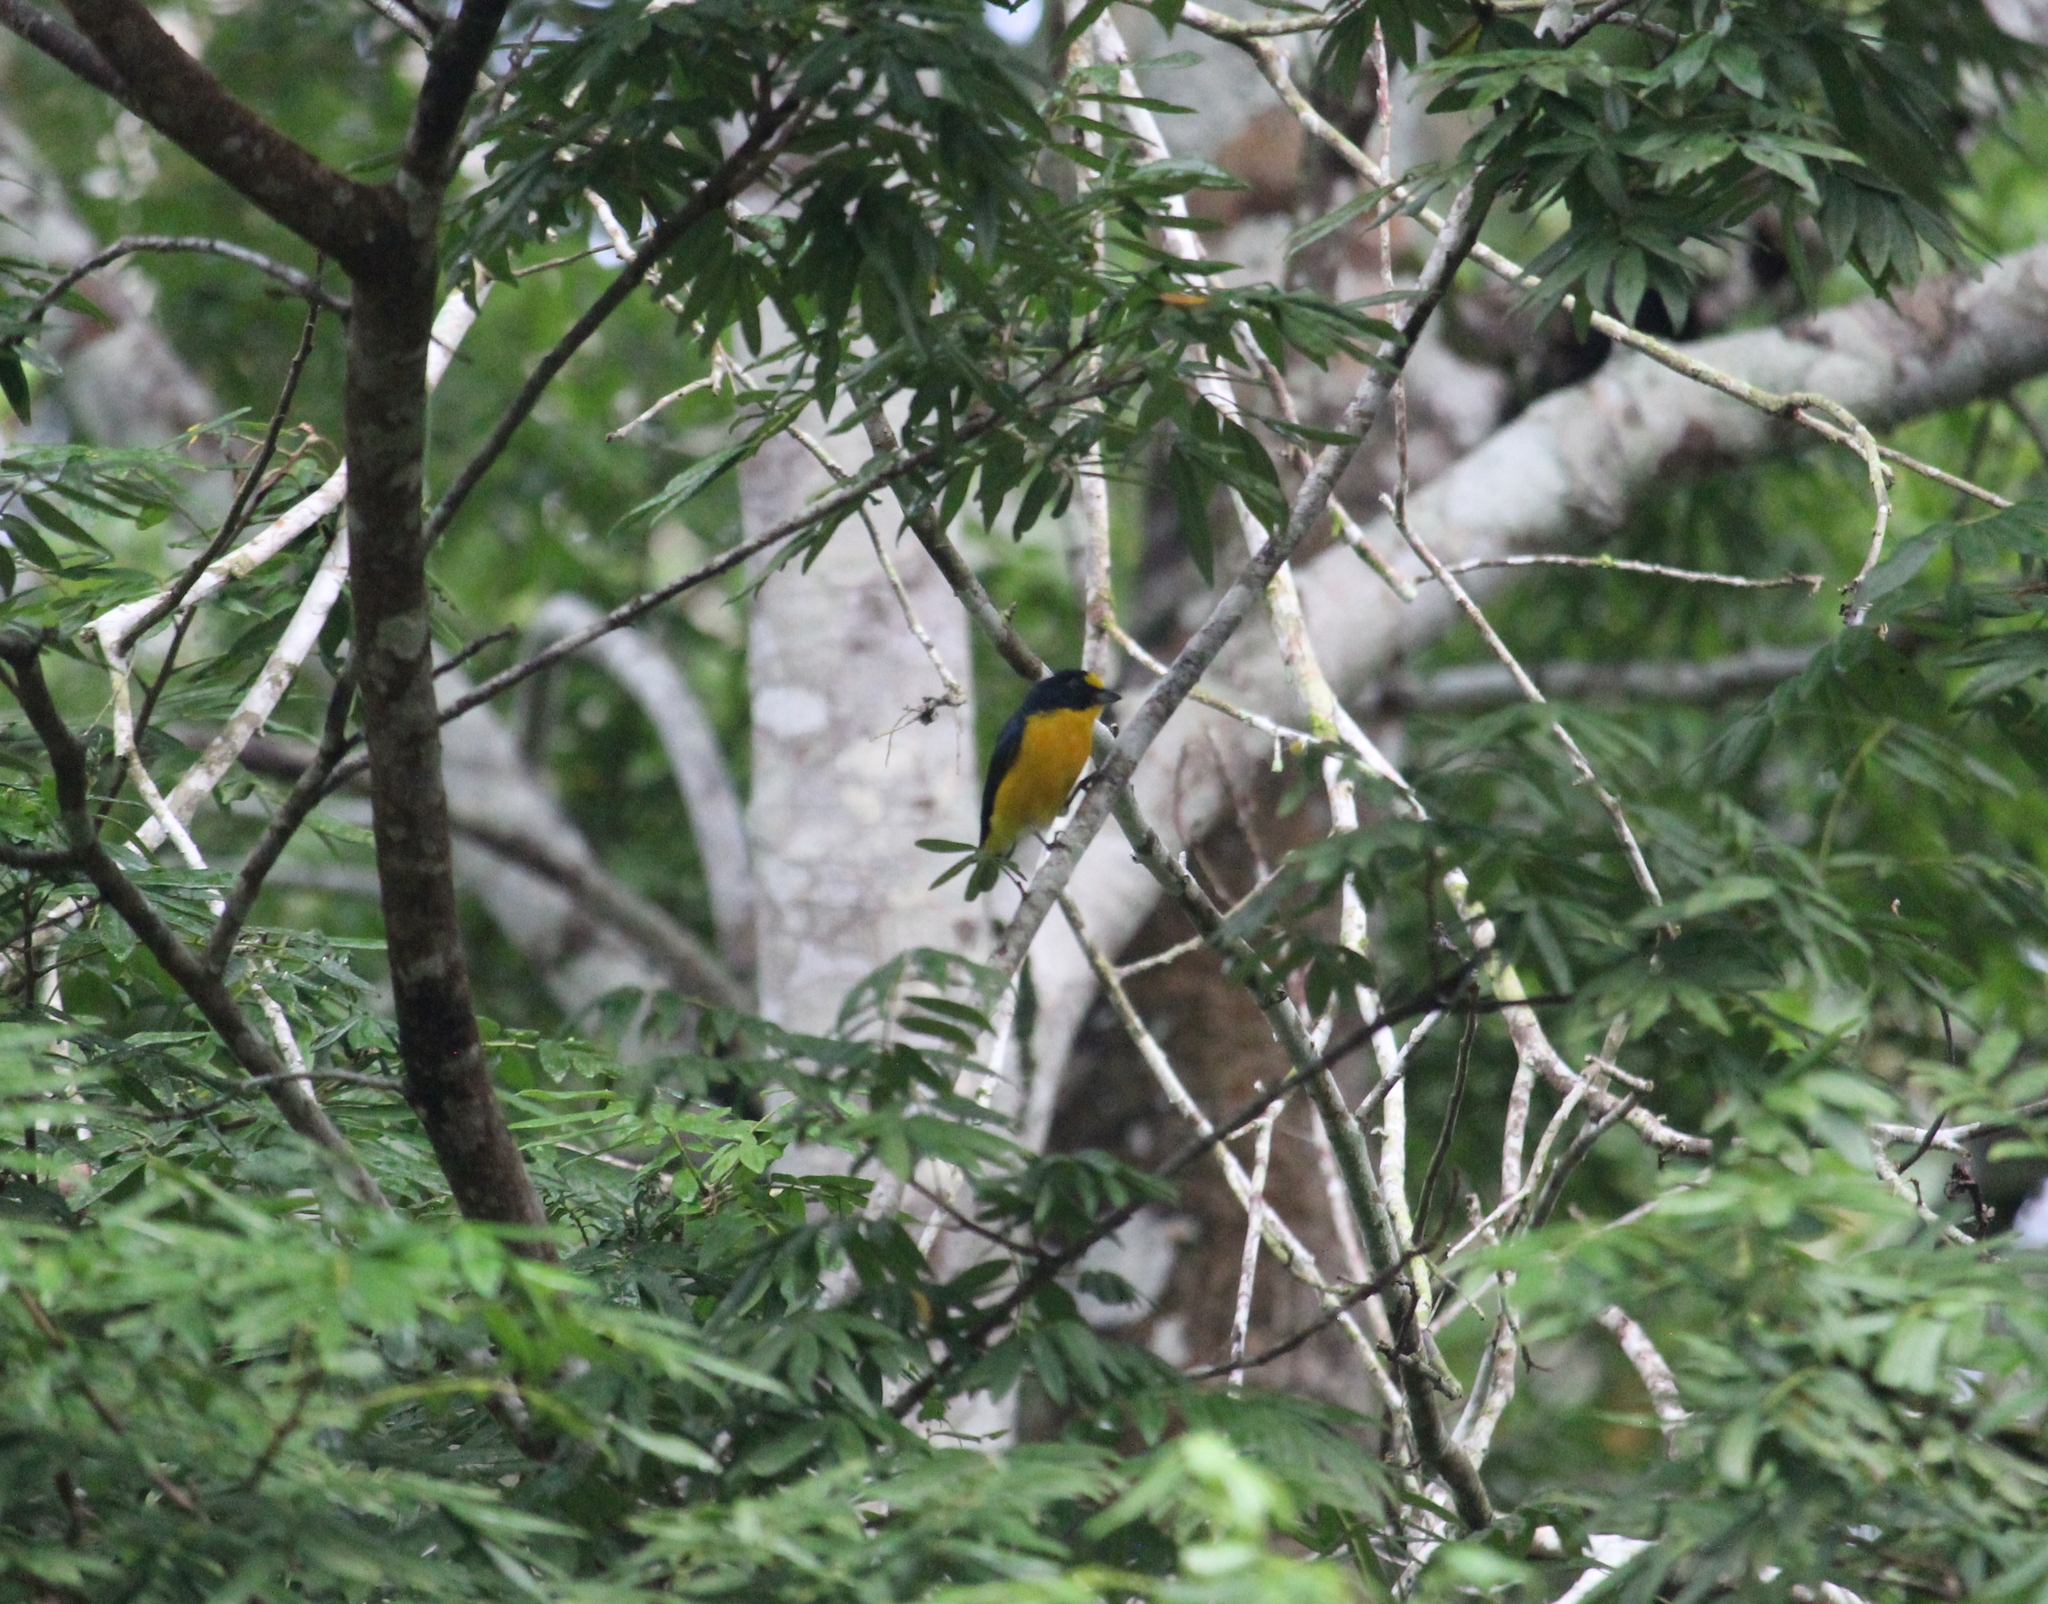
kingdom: Animalia
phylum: Chordata
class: Aves
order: Passeriformes
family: Fringillidae
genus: Euphonia
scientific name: Euphonia hirundinacea
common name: Yellow-throated euphonia
